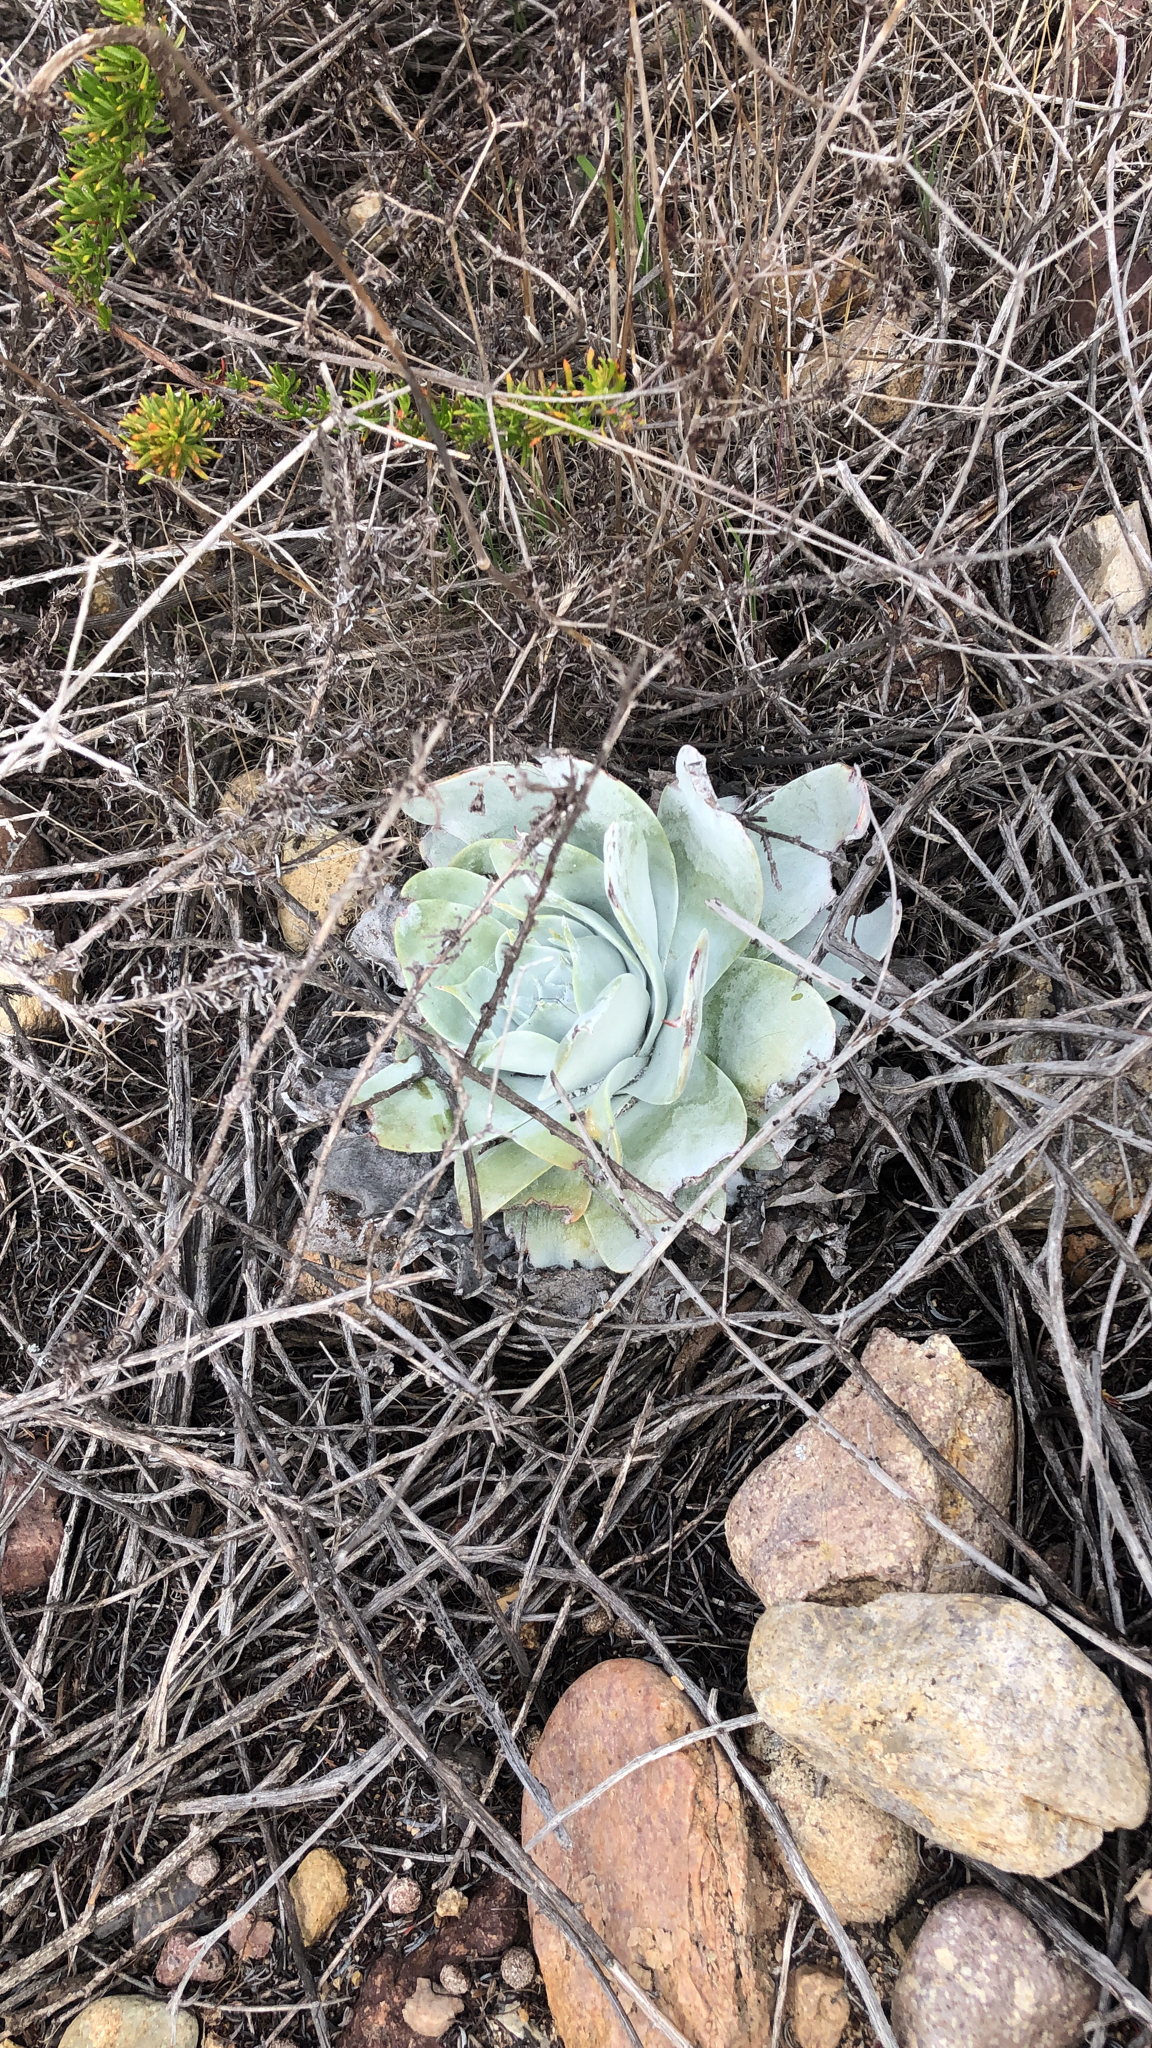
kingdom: Plantae
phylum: Tracheophyta
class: Magnoliopsida
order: Saxifragales
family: Crassulaceae
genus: Dudleya
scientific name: Dudleya pulverulenta
